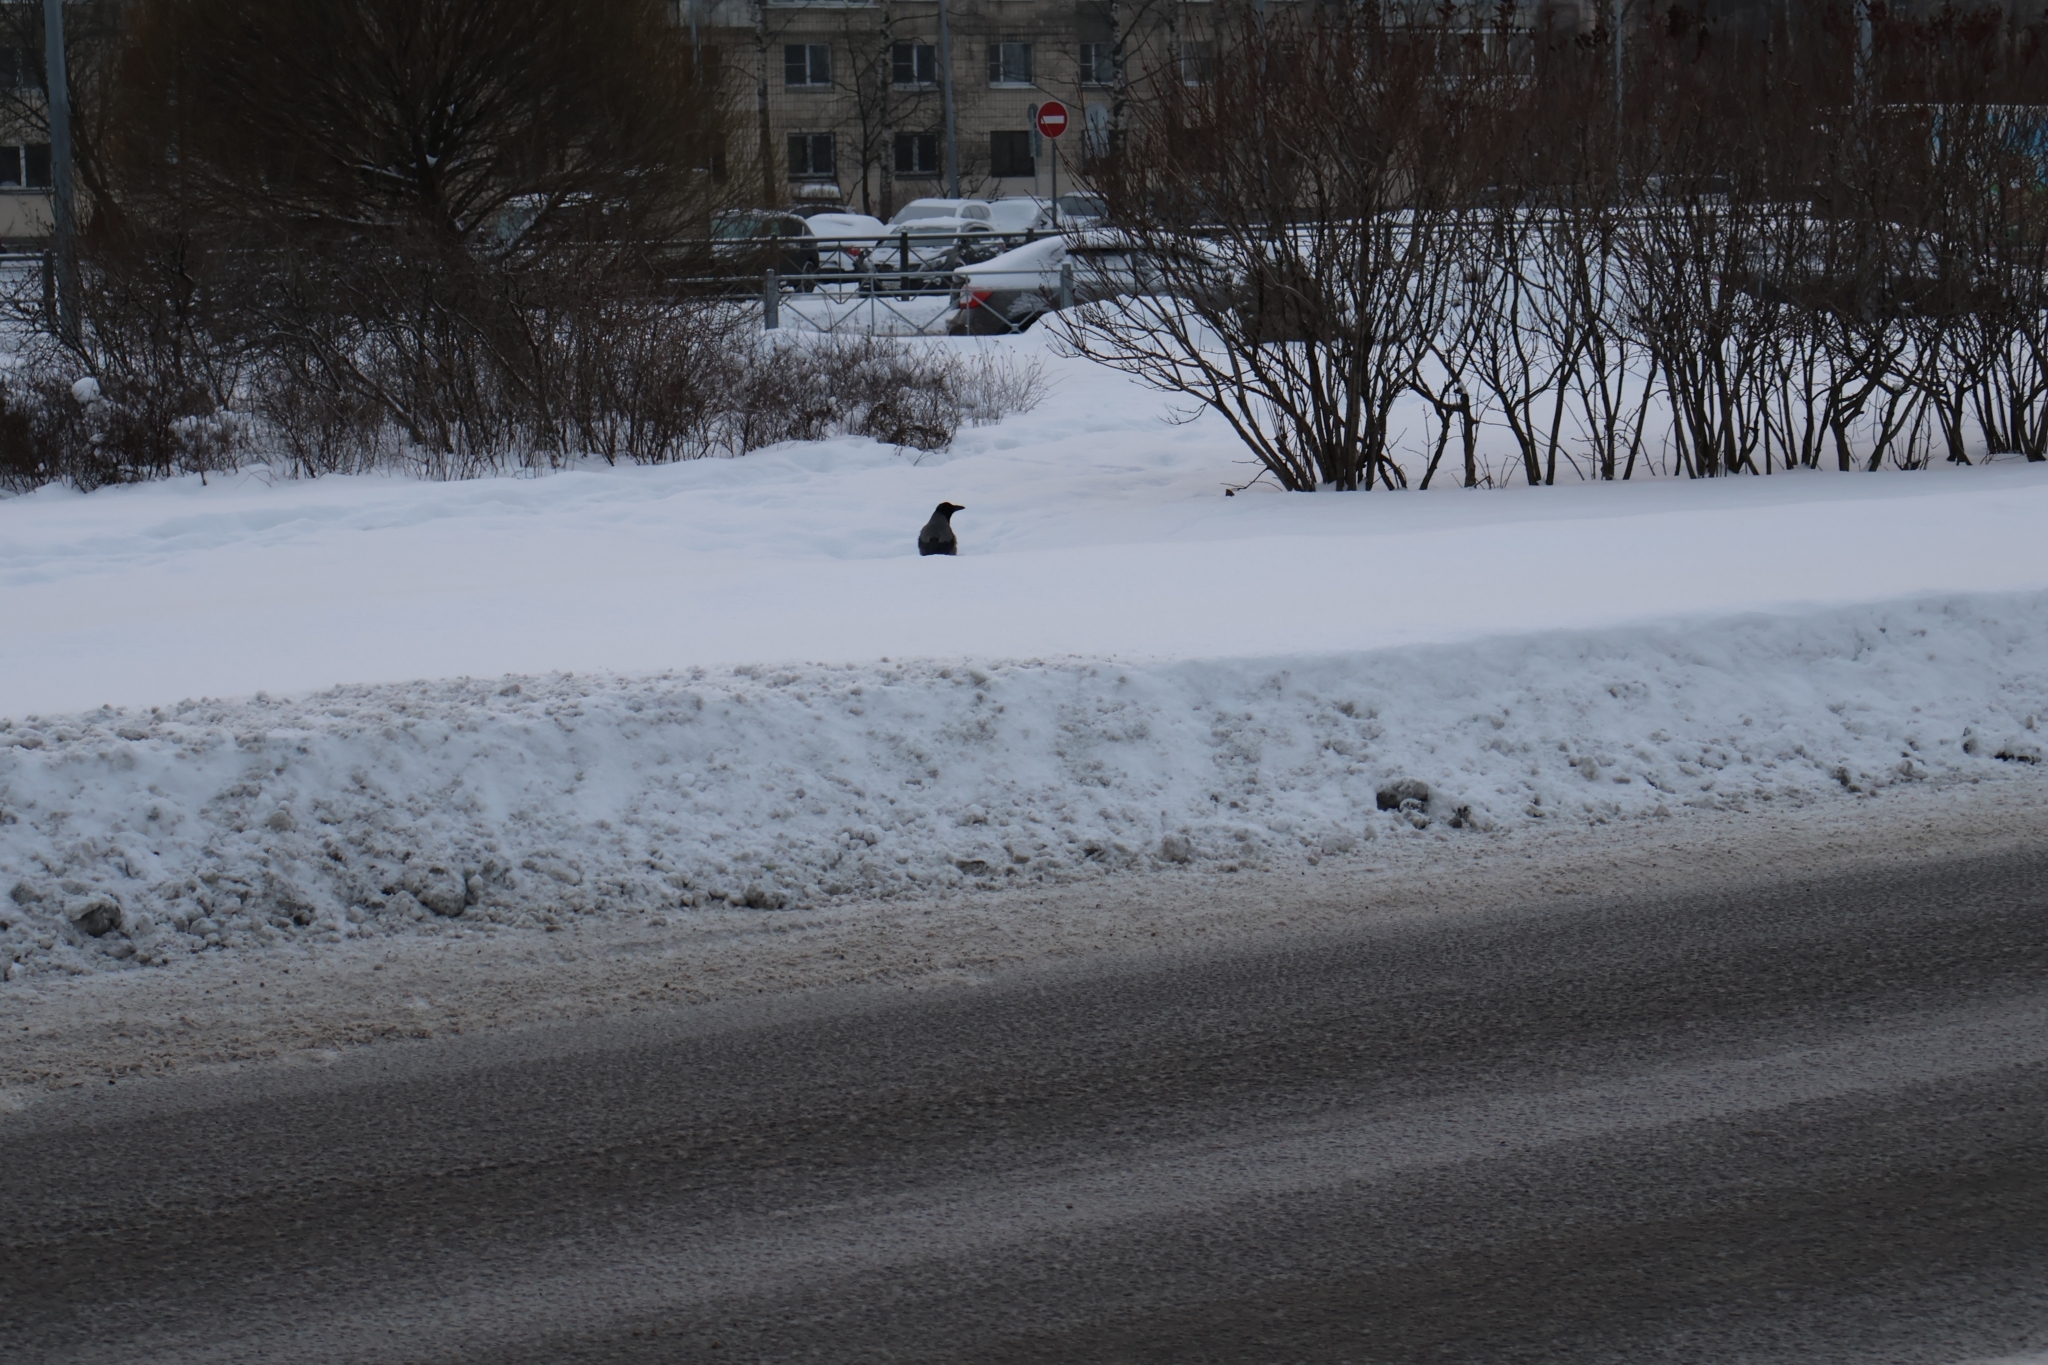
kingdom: Animalia
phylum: Chordata
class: Aves
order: Passeriformes
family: Corvidae
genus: Corvus
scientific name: Corvus cornix
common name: Hooded crow
